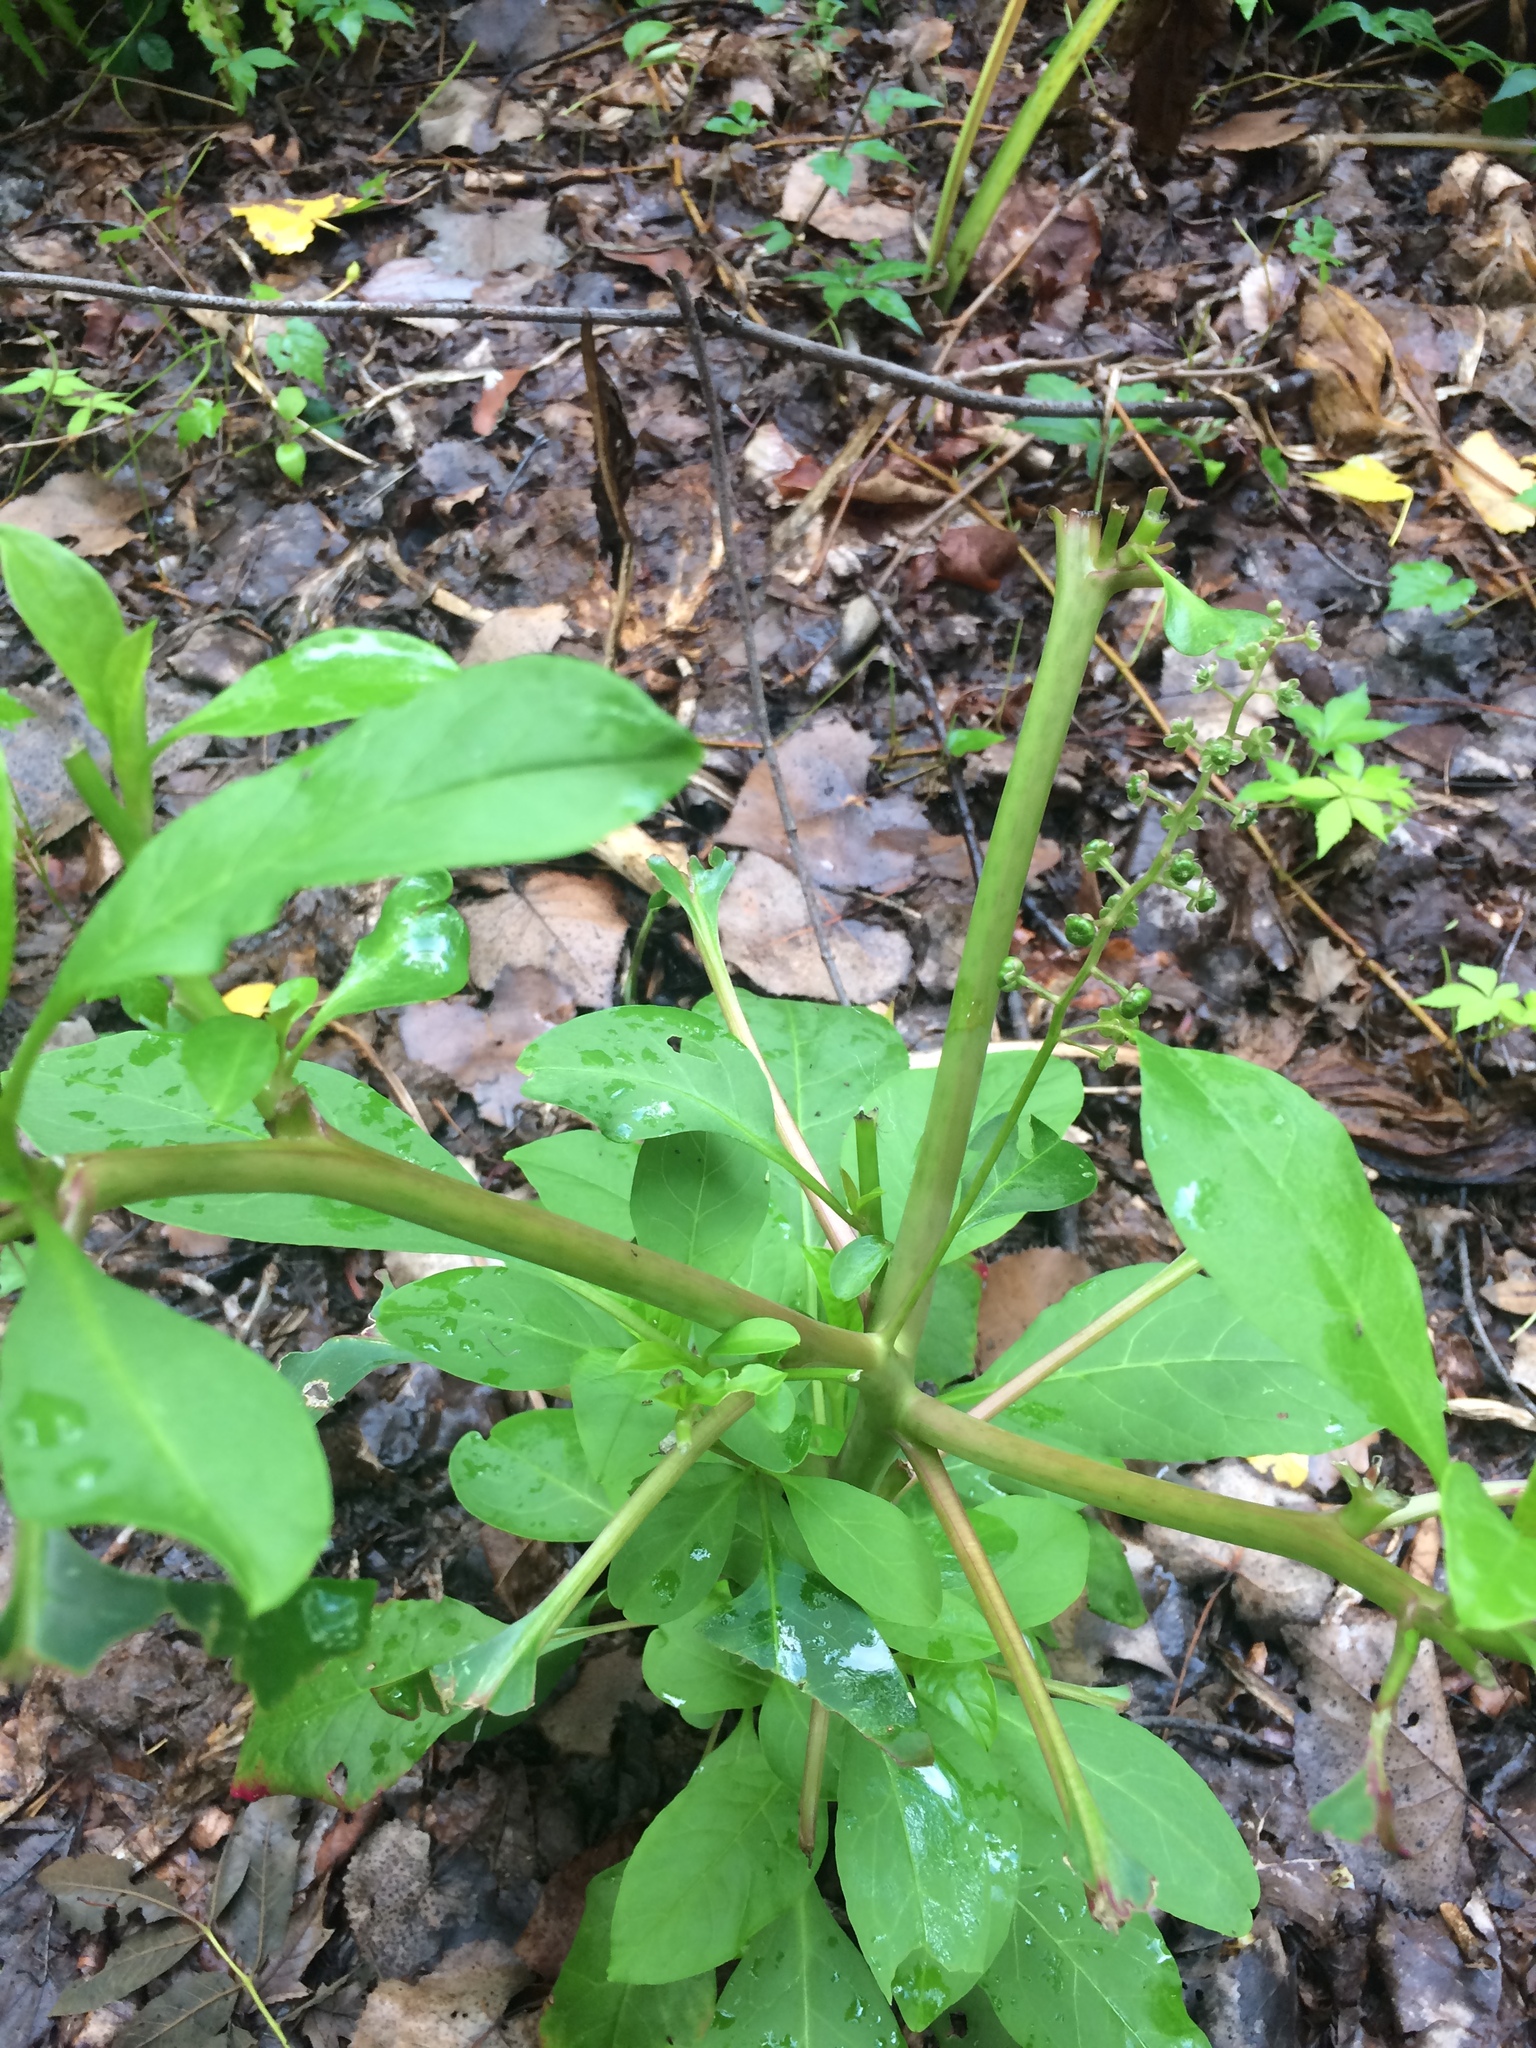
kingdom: Plantae
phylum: Tracheophyta
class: Magnoliopsida
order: Caryophyllales
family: Phytolaccaceae
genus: Phytolacca
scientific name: Phytolacca americana
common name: American pokeweed
